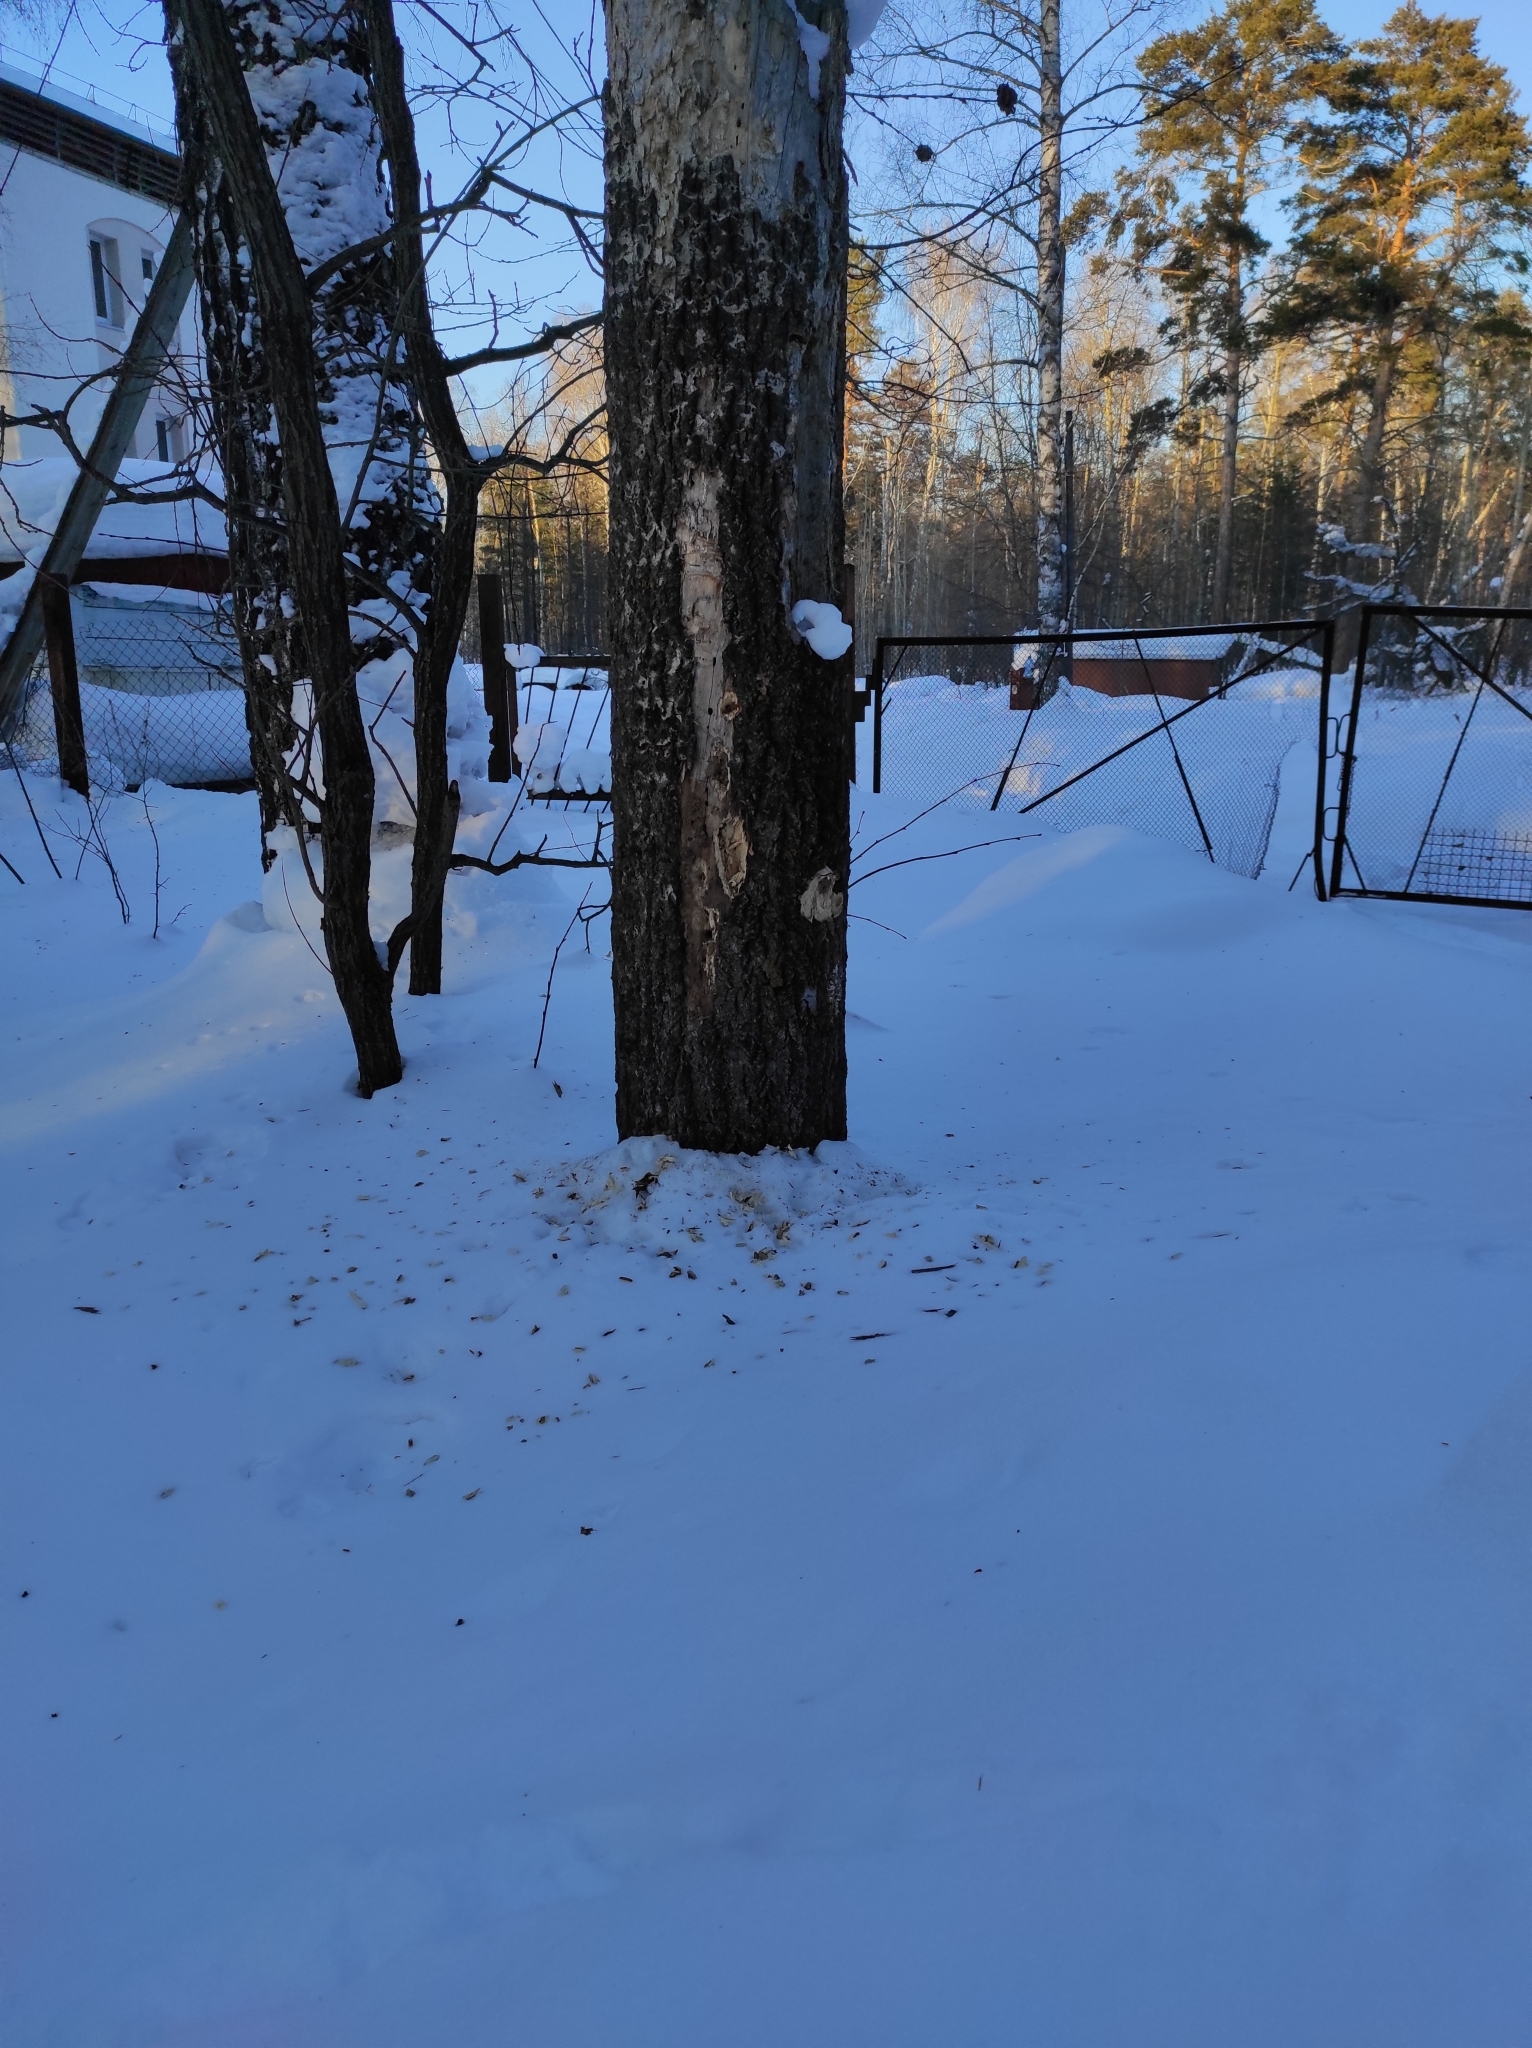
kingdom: Plantae
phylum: Tracheophyta
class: Magnoliopsida
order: Malpighiales
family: Salicaceae
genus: Populus
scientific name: Populus tremula
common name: European aspen
